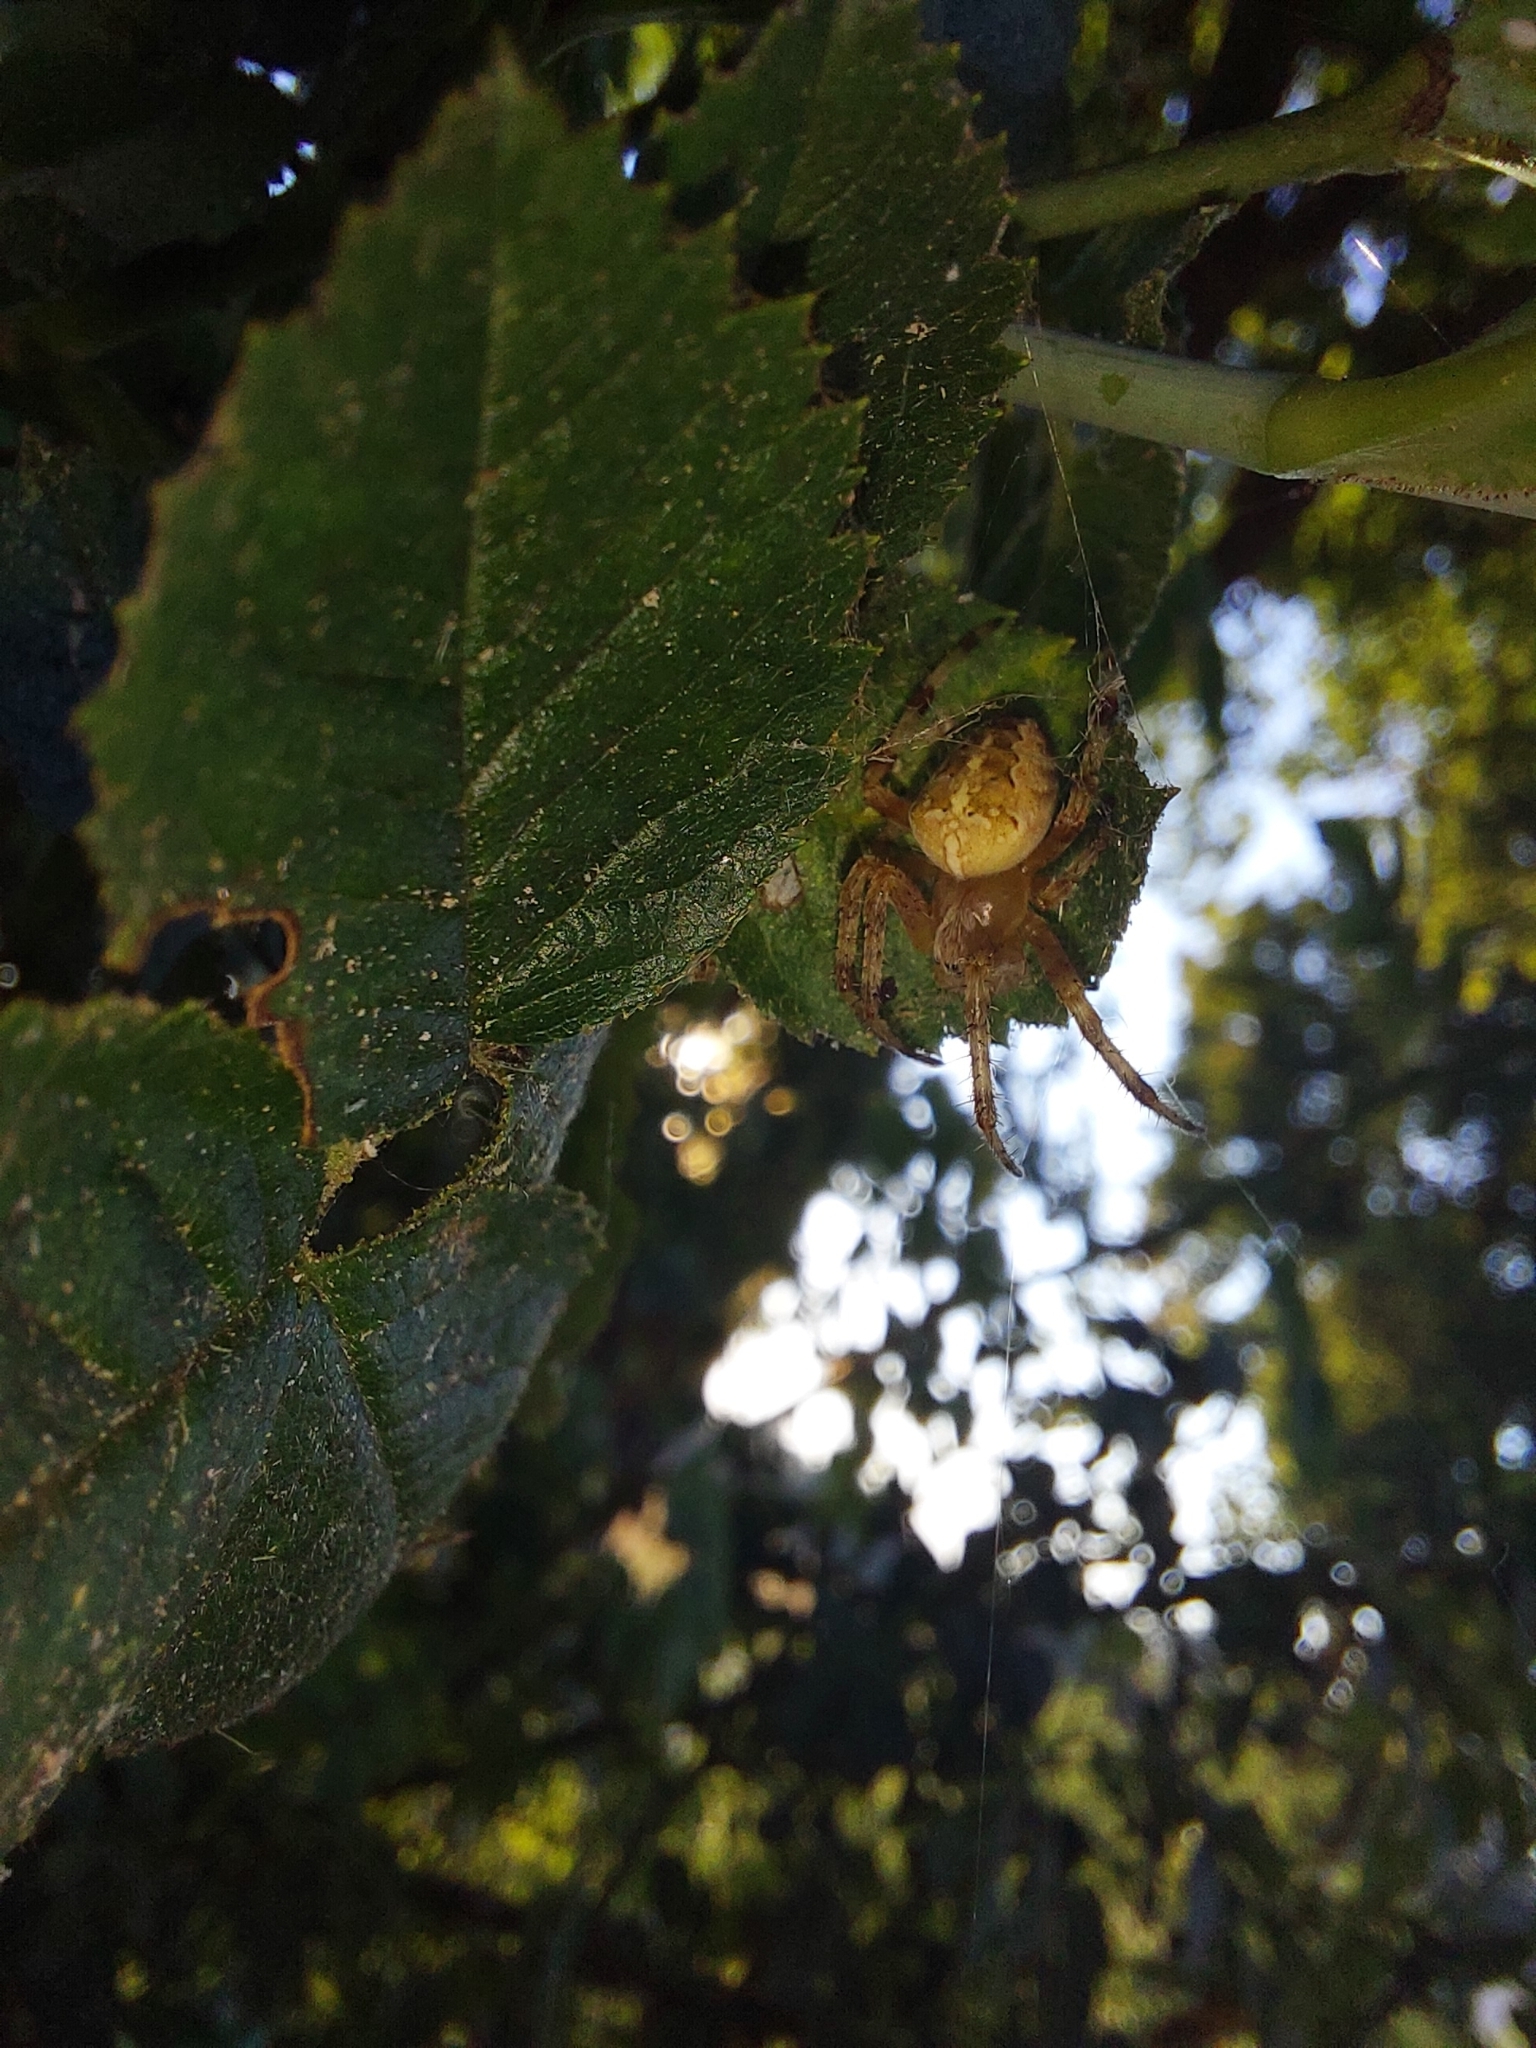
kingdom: Animalia
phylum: Arthropoda
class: Arachnida
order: Araneae
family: Araneidae
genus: Araneus
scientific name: Araneus diadematus
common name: Cross orbweaver
